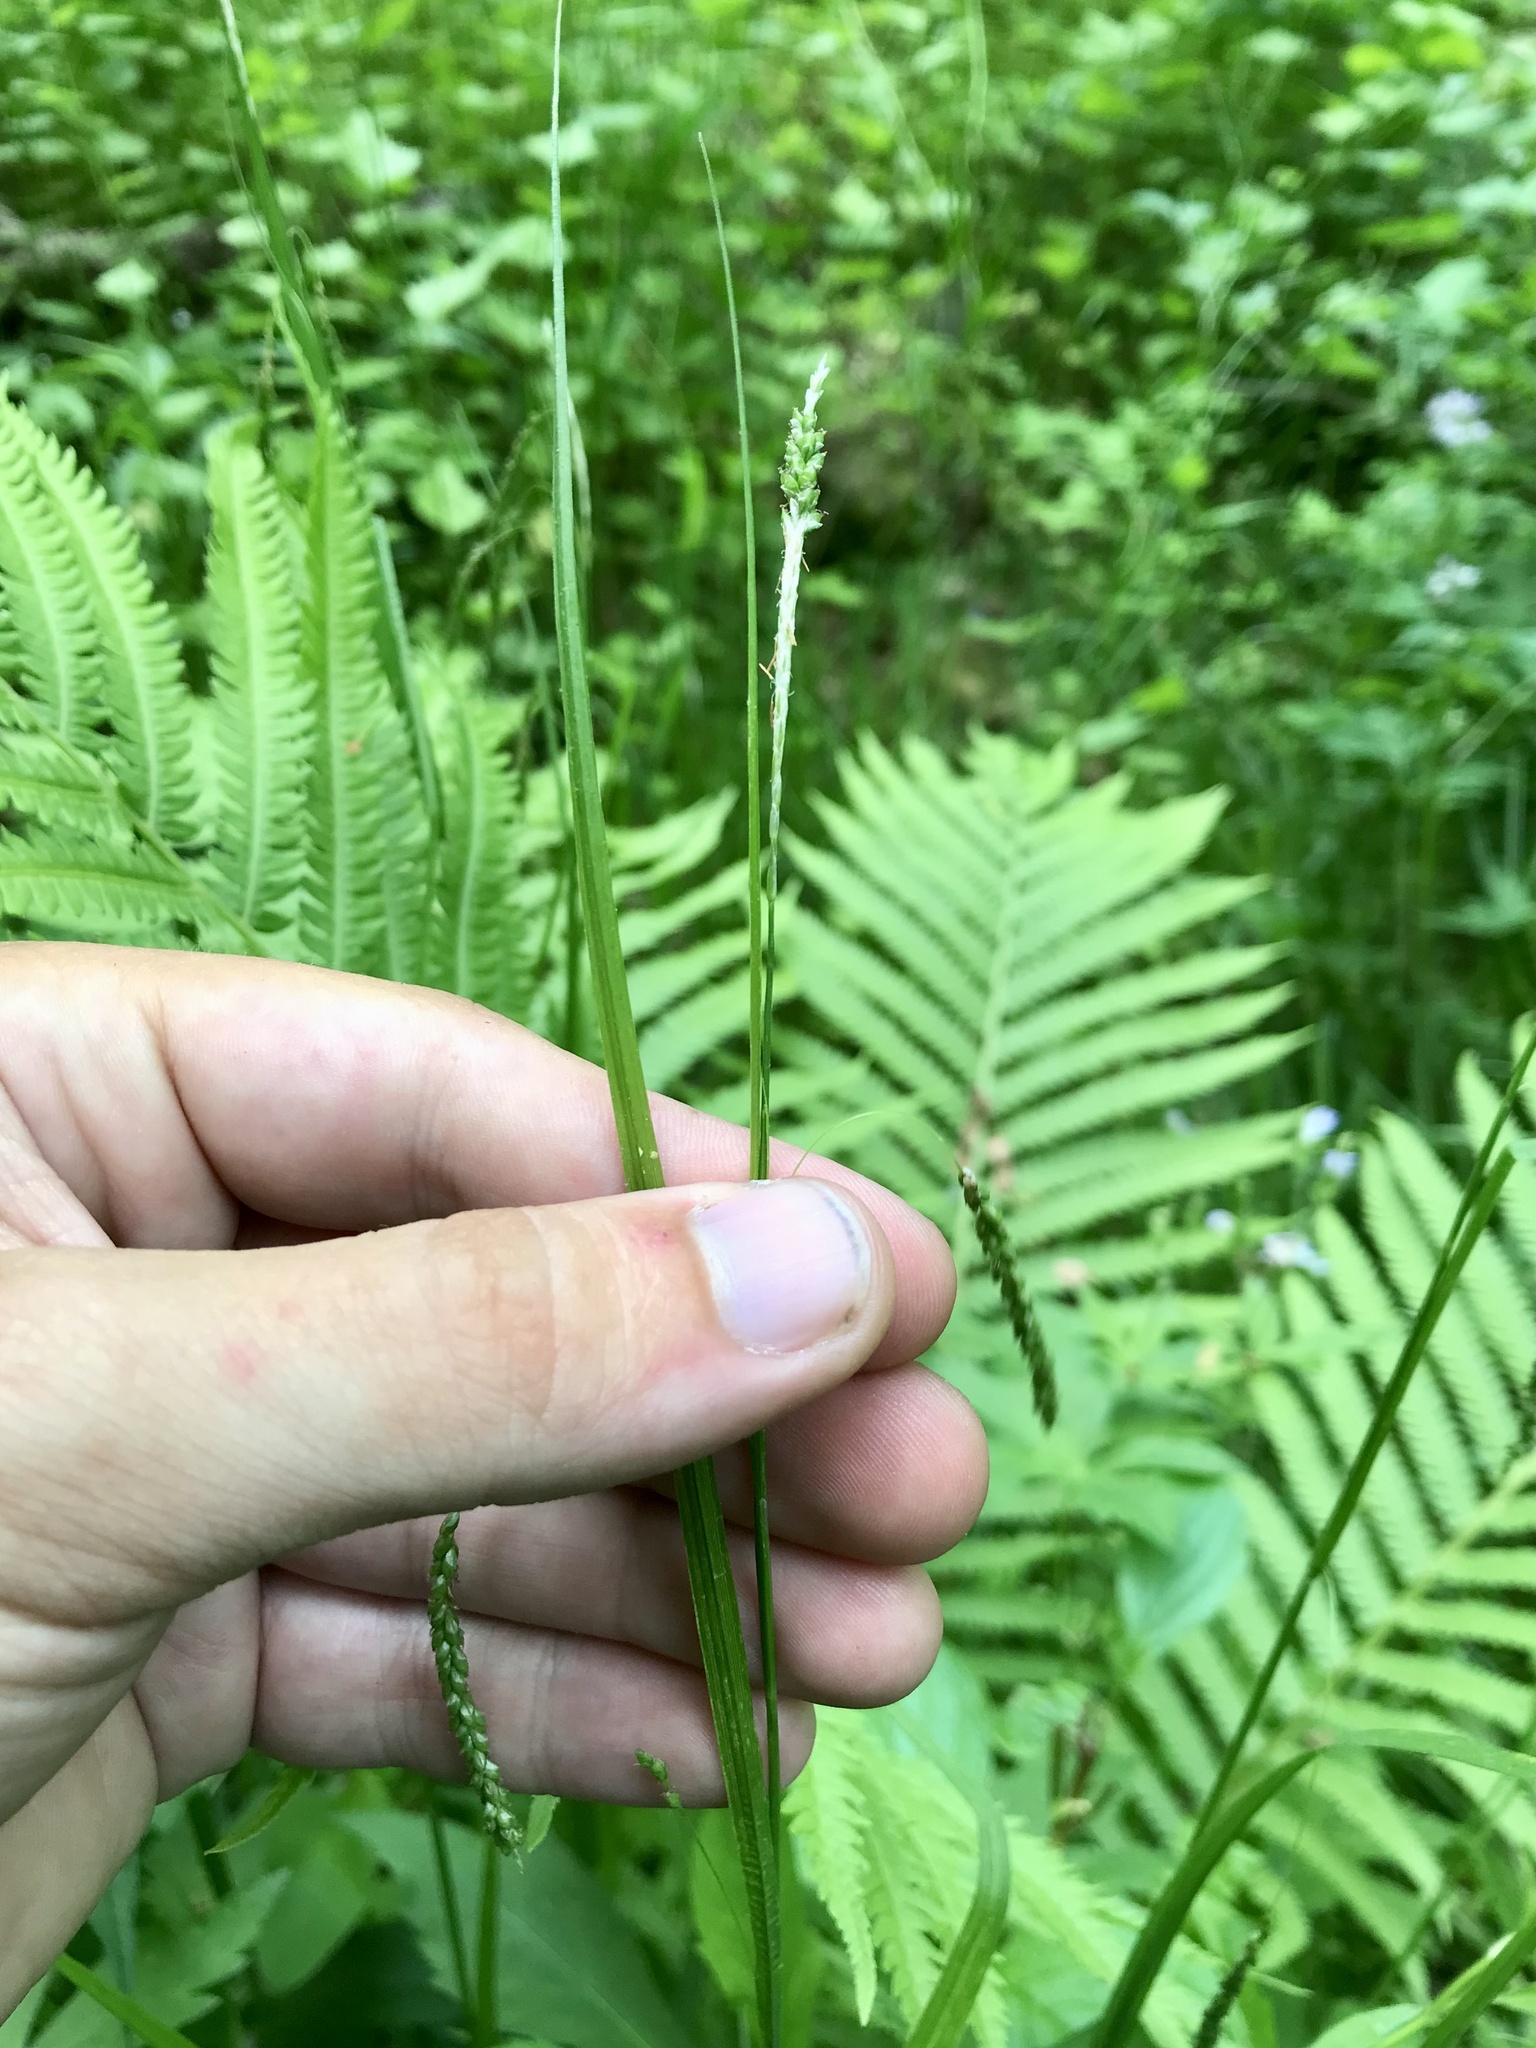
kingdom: Plantae
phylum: Tracheophyta
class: Liliopsida
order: Poales
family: Cyperaceae
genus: Carex
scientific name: Carex gracillima
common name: Graceful sedge
